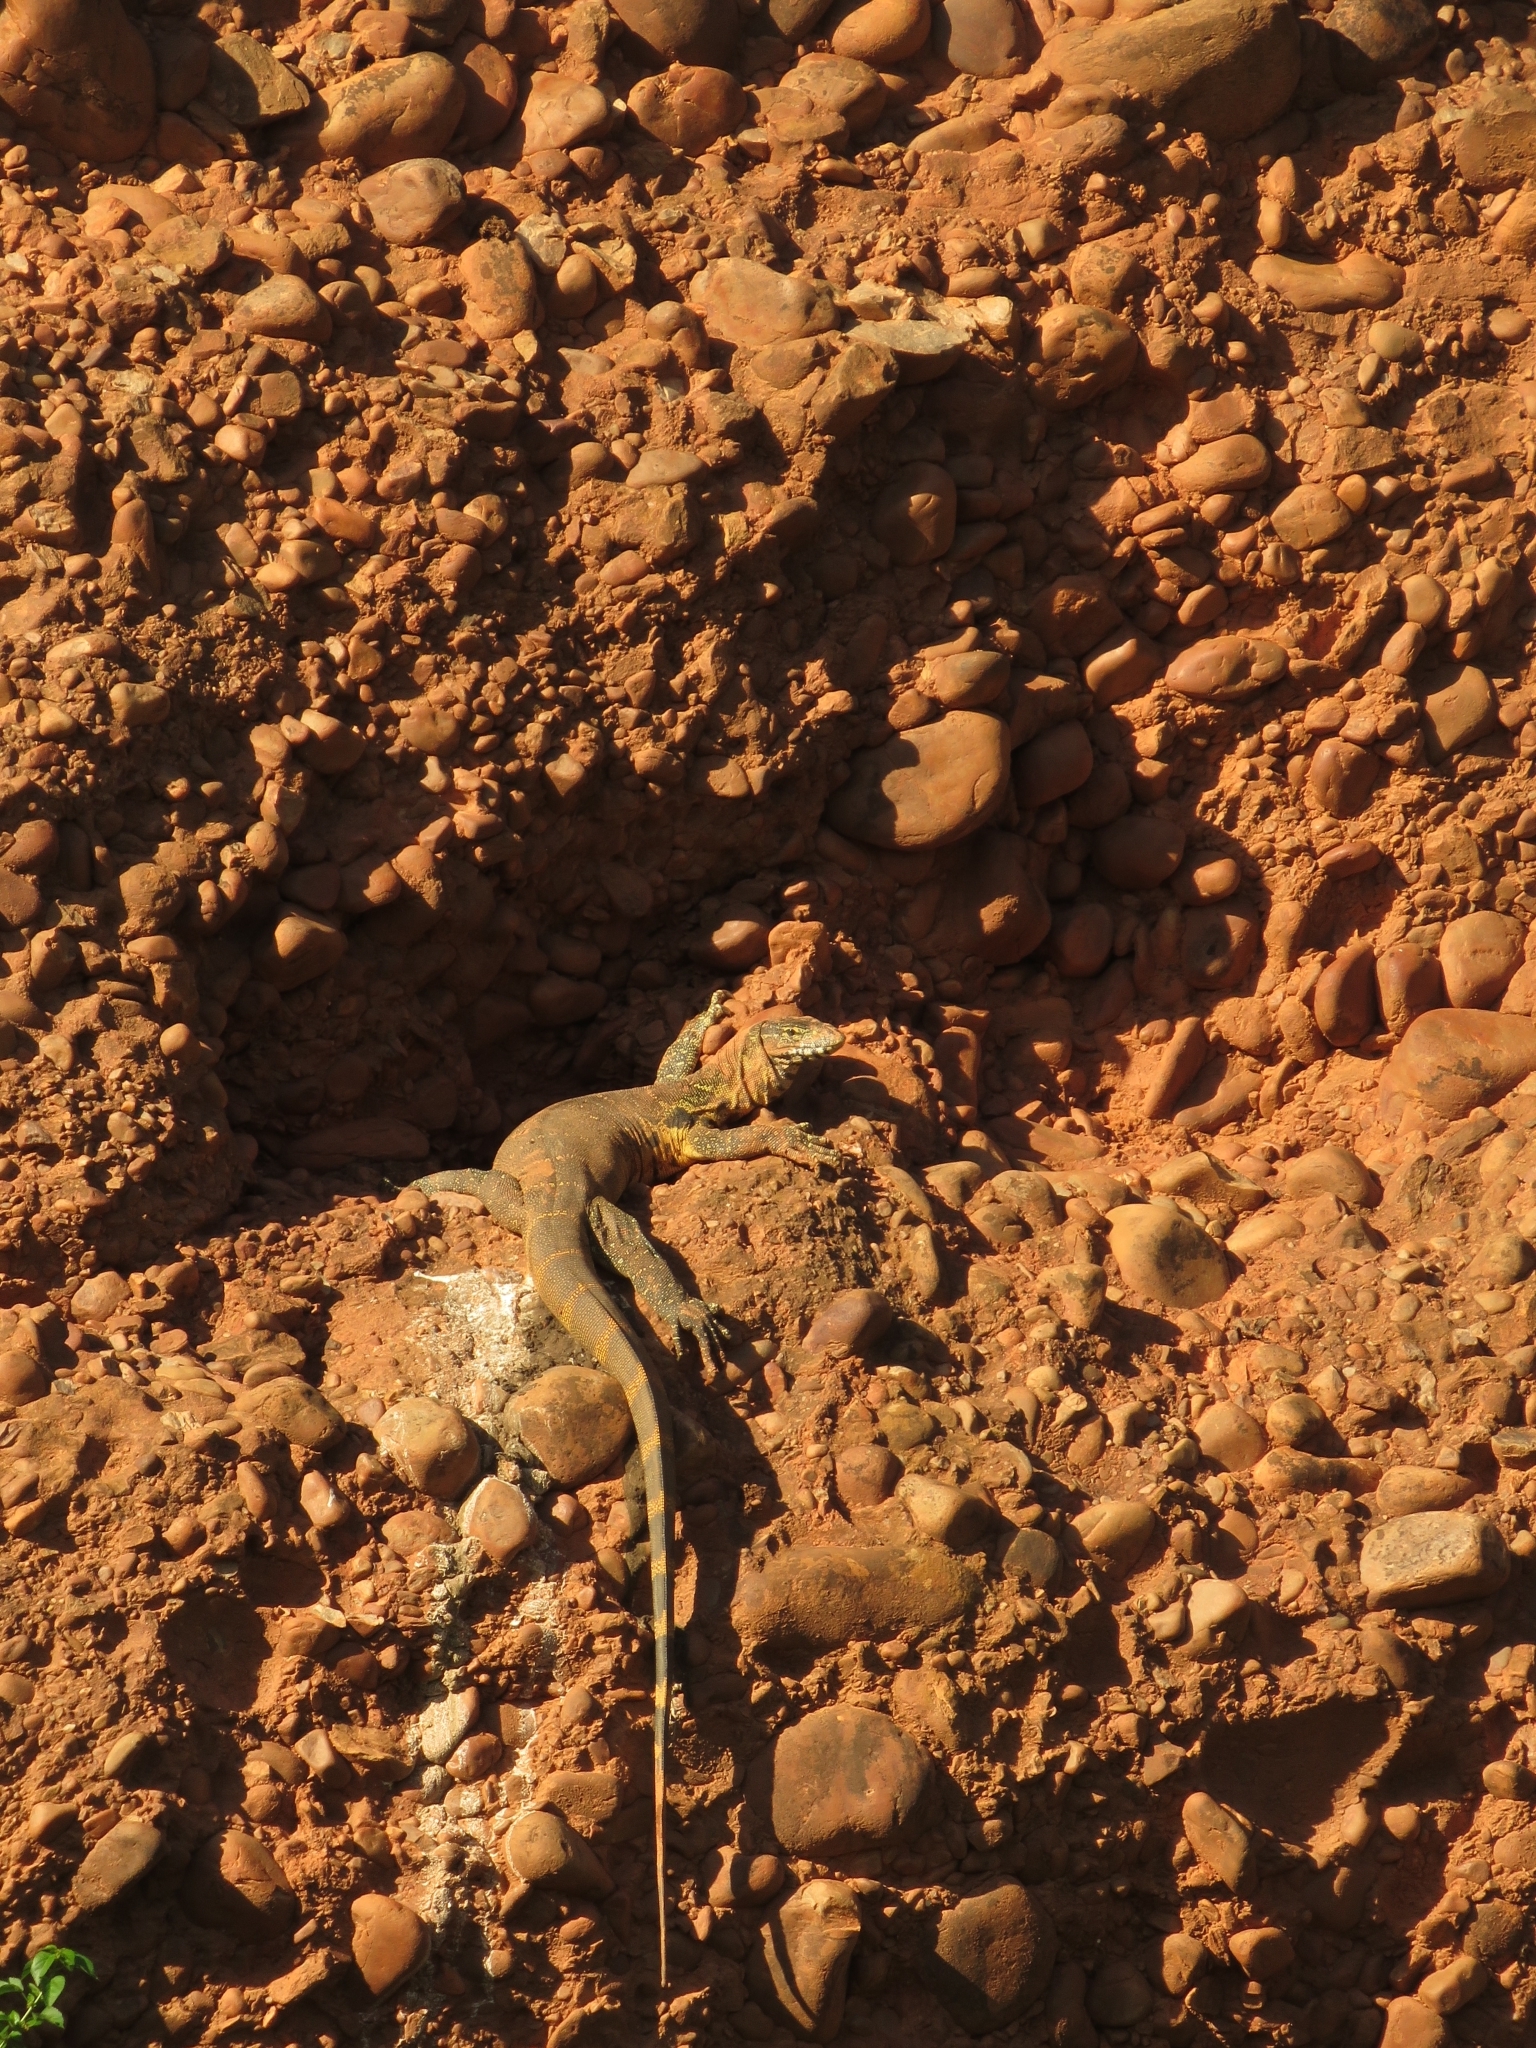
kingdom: Animalia
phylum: Chordata
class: Squamata
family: Varanidae
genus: Varanus
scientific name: Varanus niloticus
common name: Nile monitor
